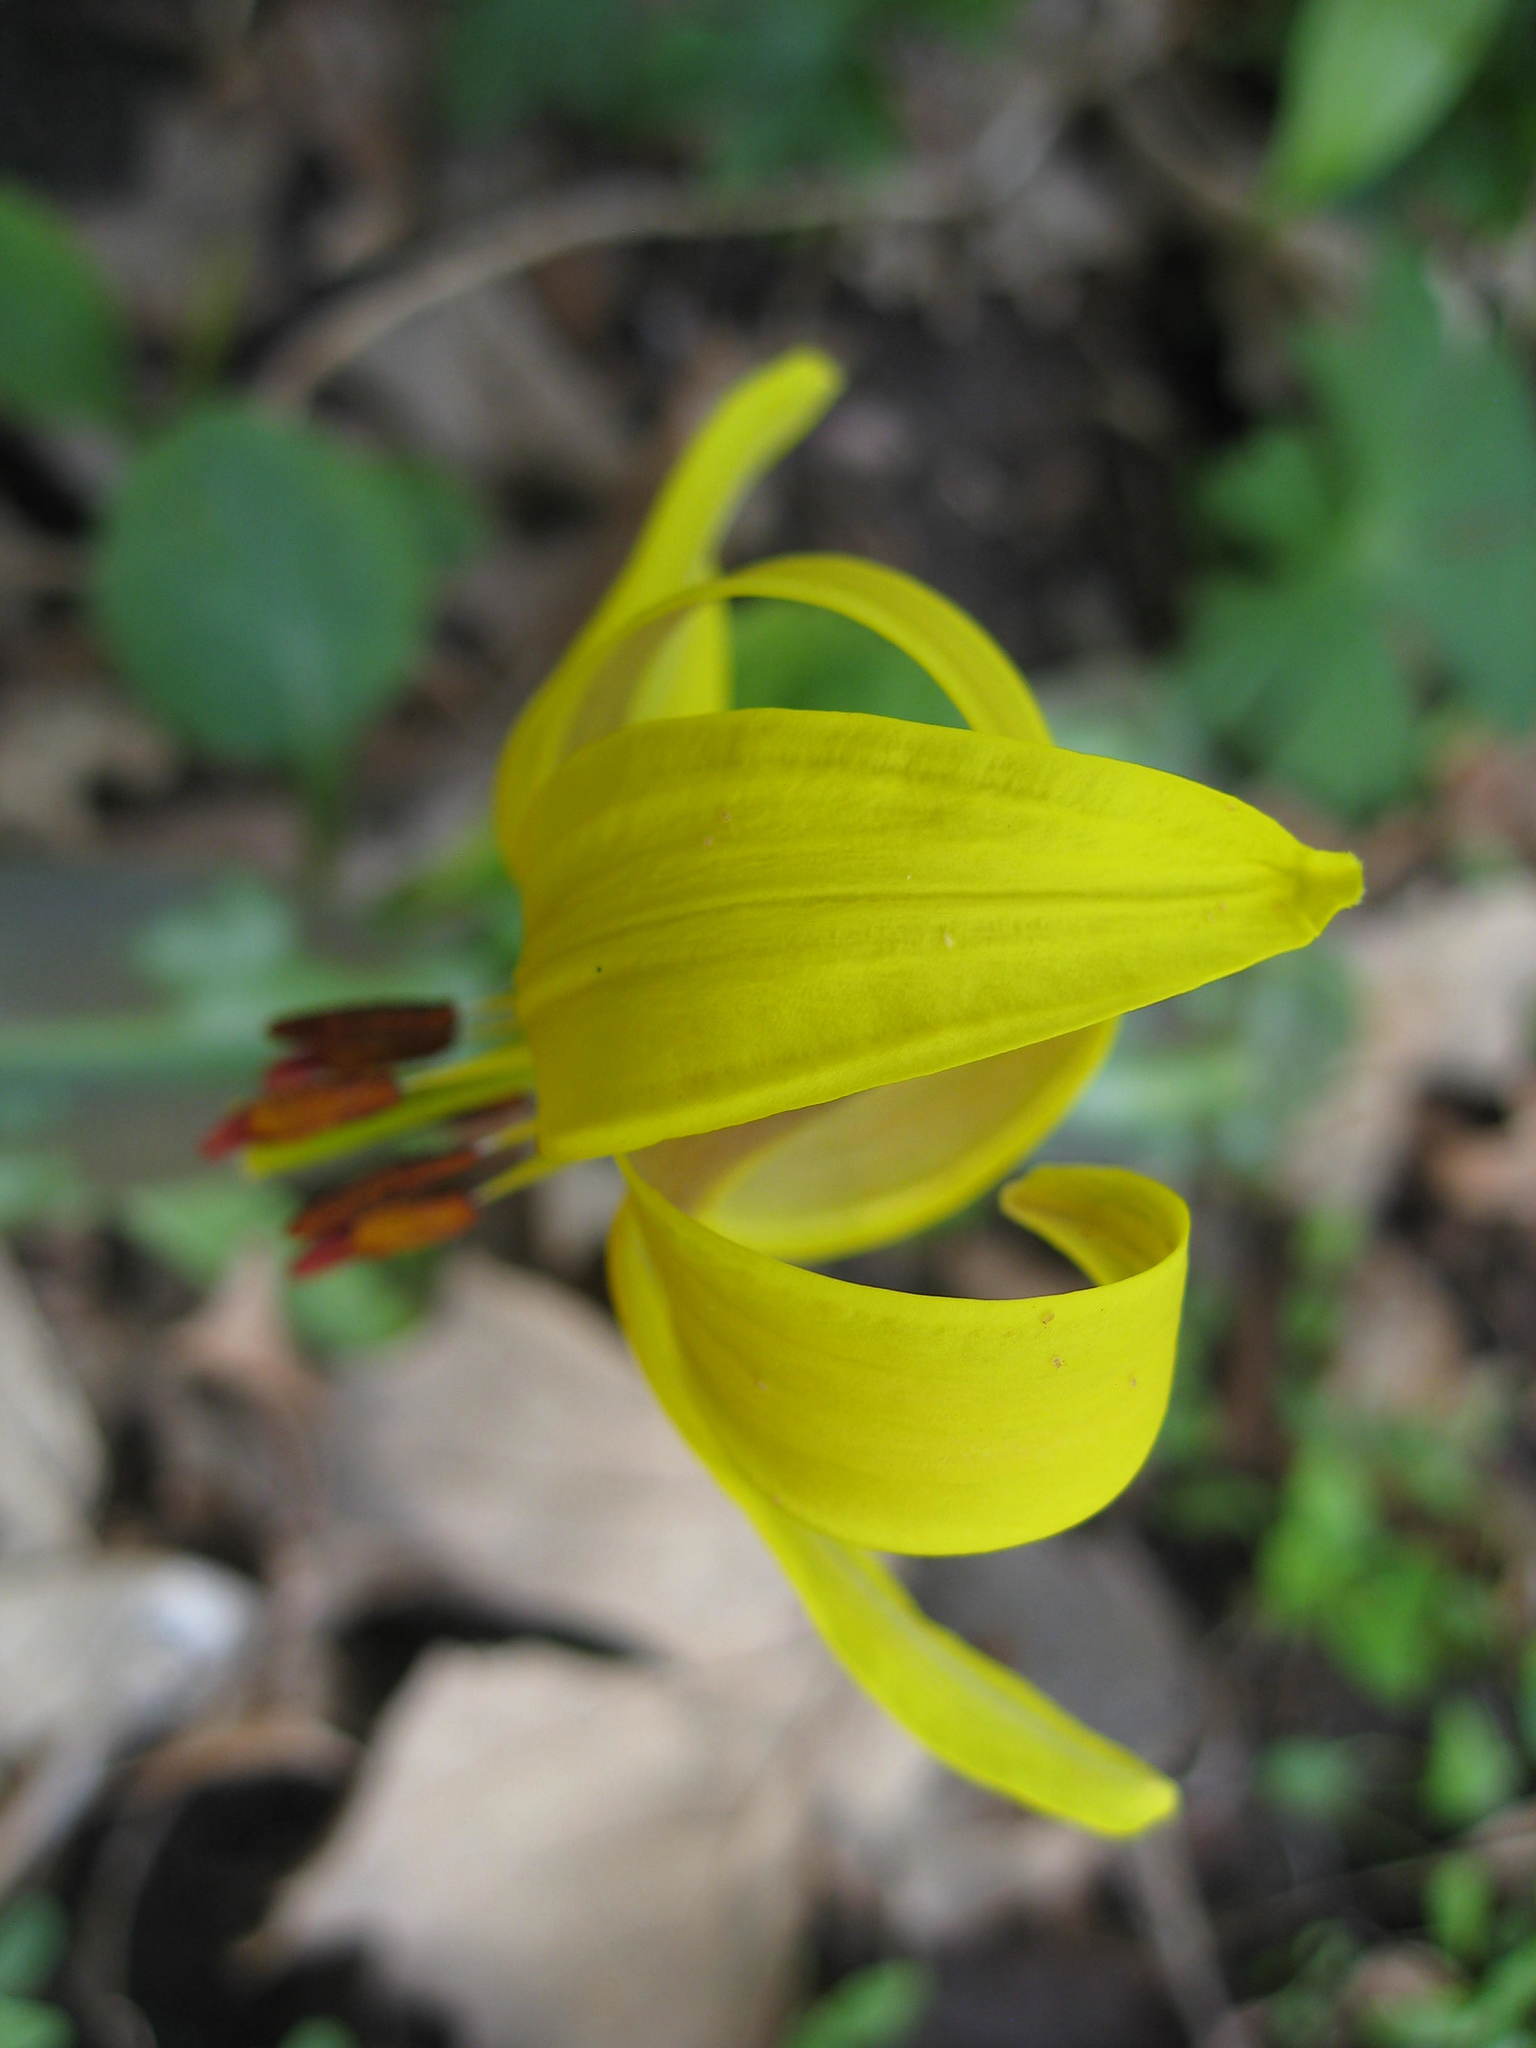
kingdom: Plantae
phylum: Tracheophyta
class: Liliopsida
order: Liliales
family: Liliaceae
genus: Erythronium
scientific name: Erythronium americanum
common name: Yellow adder's-tongue
